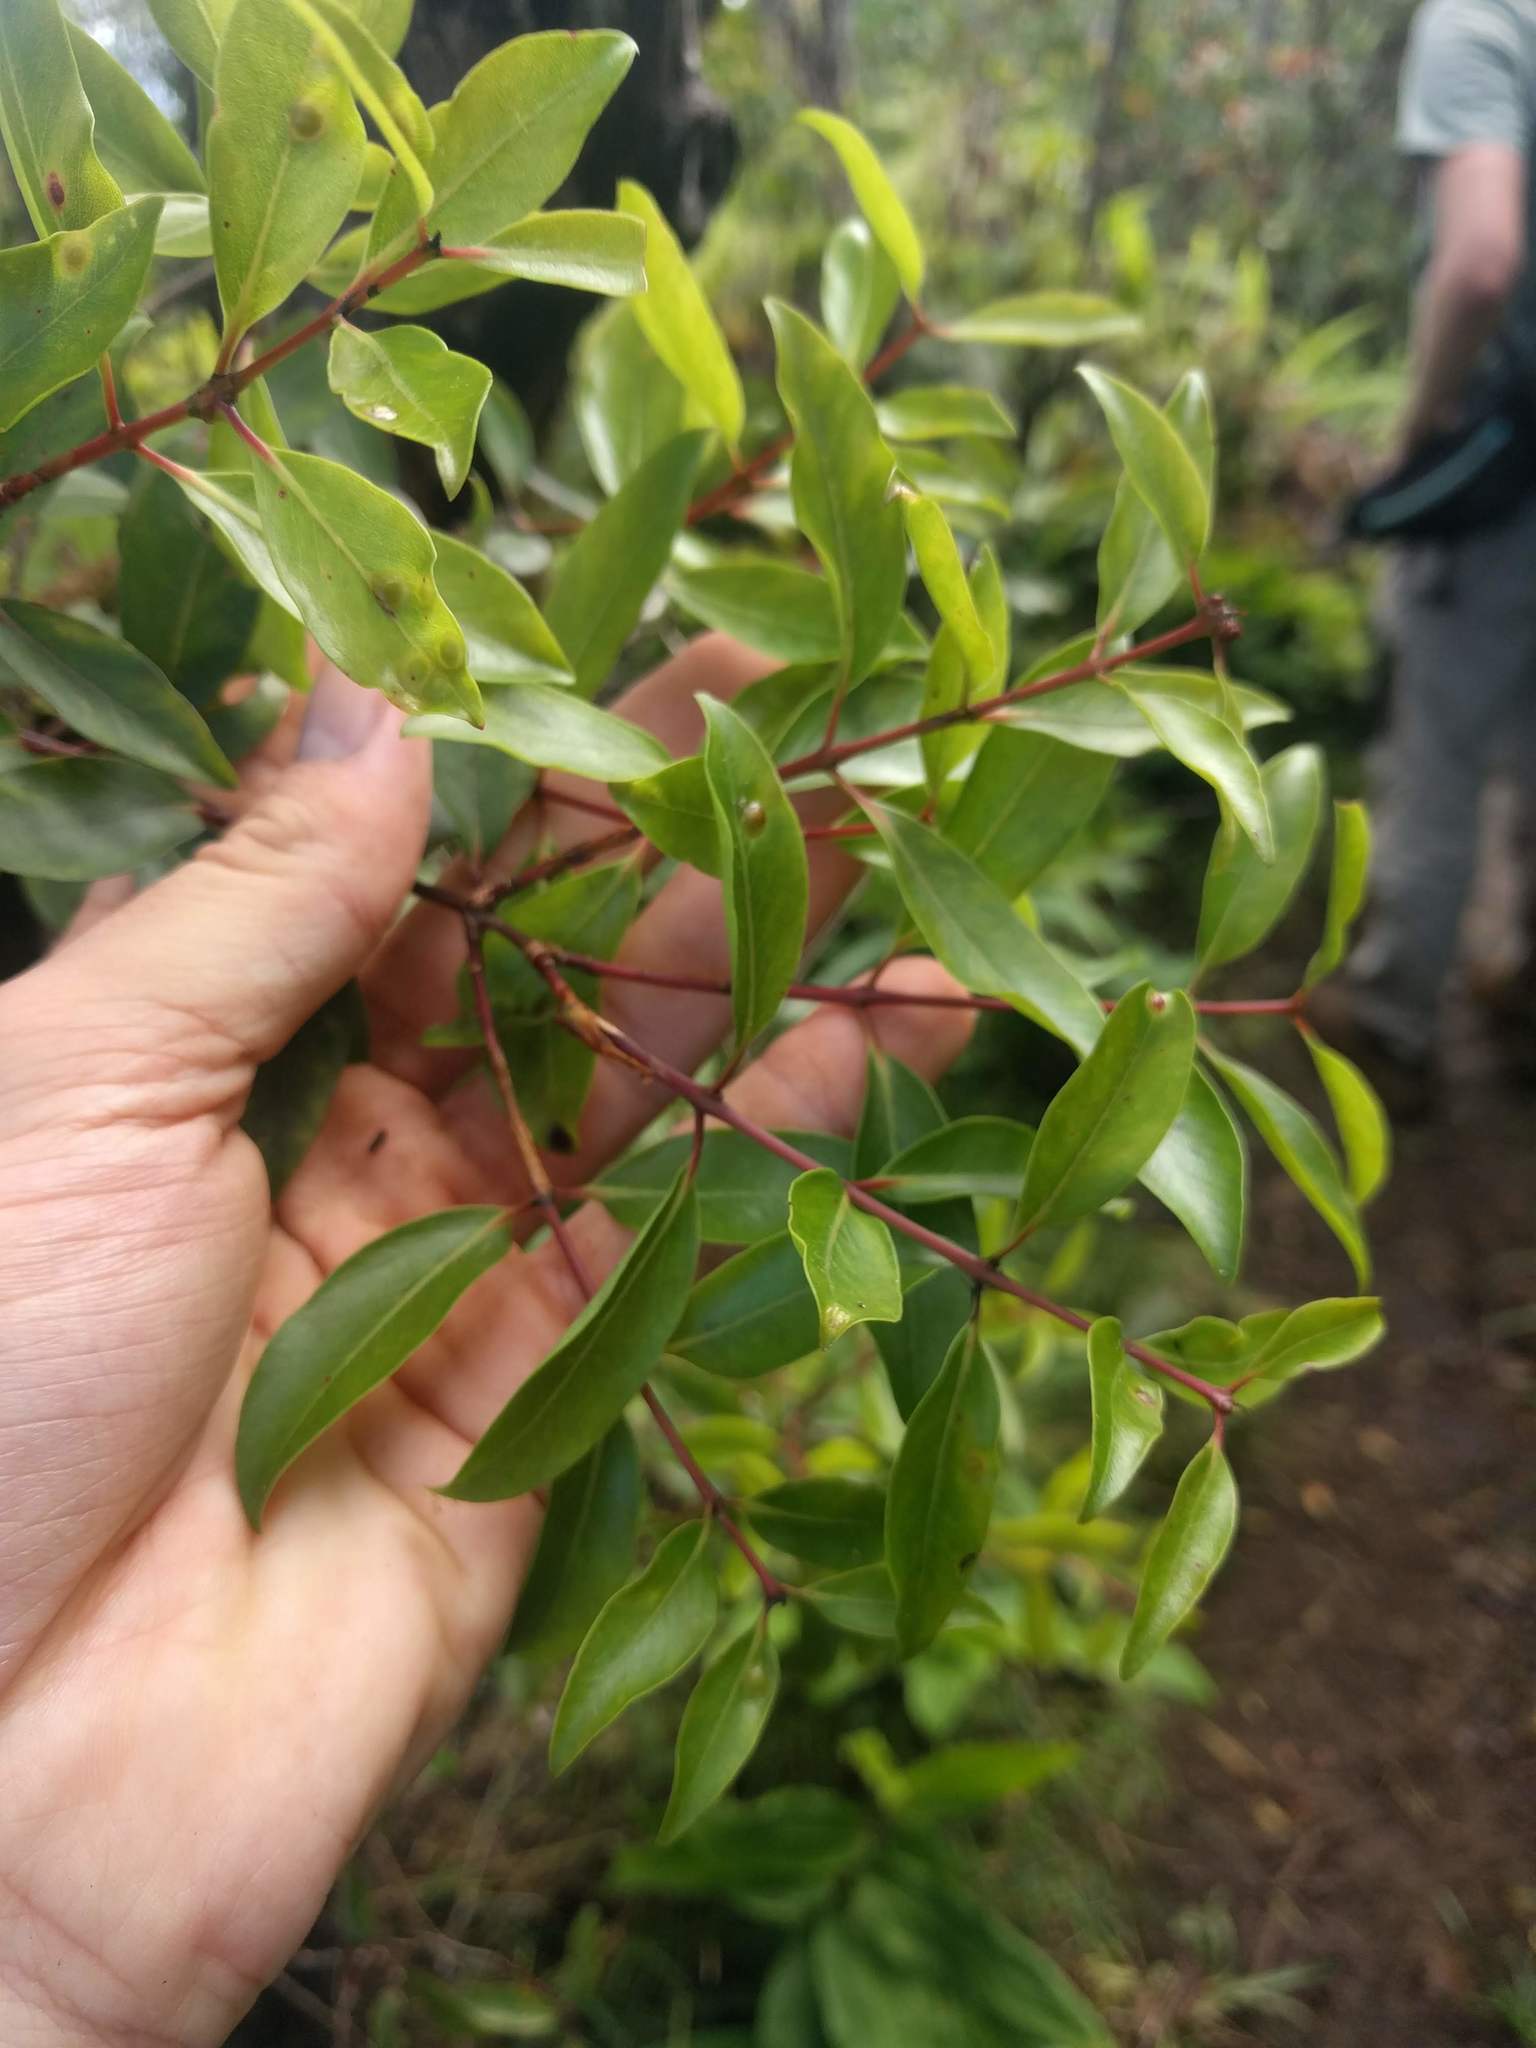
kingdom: Plantae
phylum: Tracheophyta
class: Magnoliopsida
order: Myrtales
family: Myrtaceae
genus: Metrosideros
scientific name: Metrosideros polymorpha
